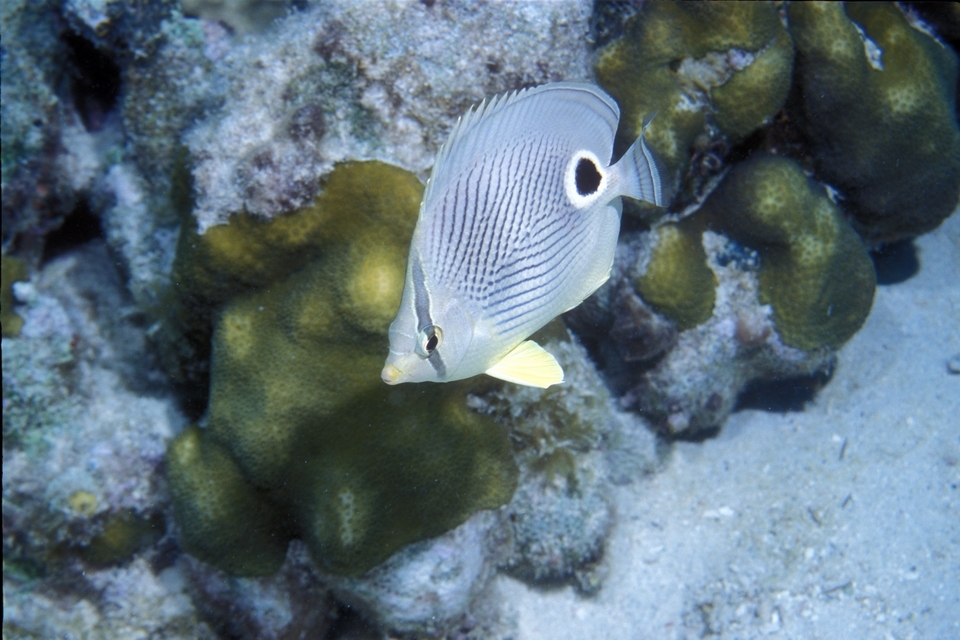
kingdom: Animalia
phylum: Chordata
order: Perciformes
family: Chaetodontidae
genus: Chaetodon
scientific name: Chaetodon capistratus
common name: Kete
